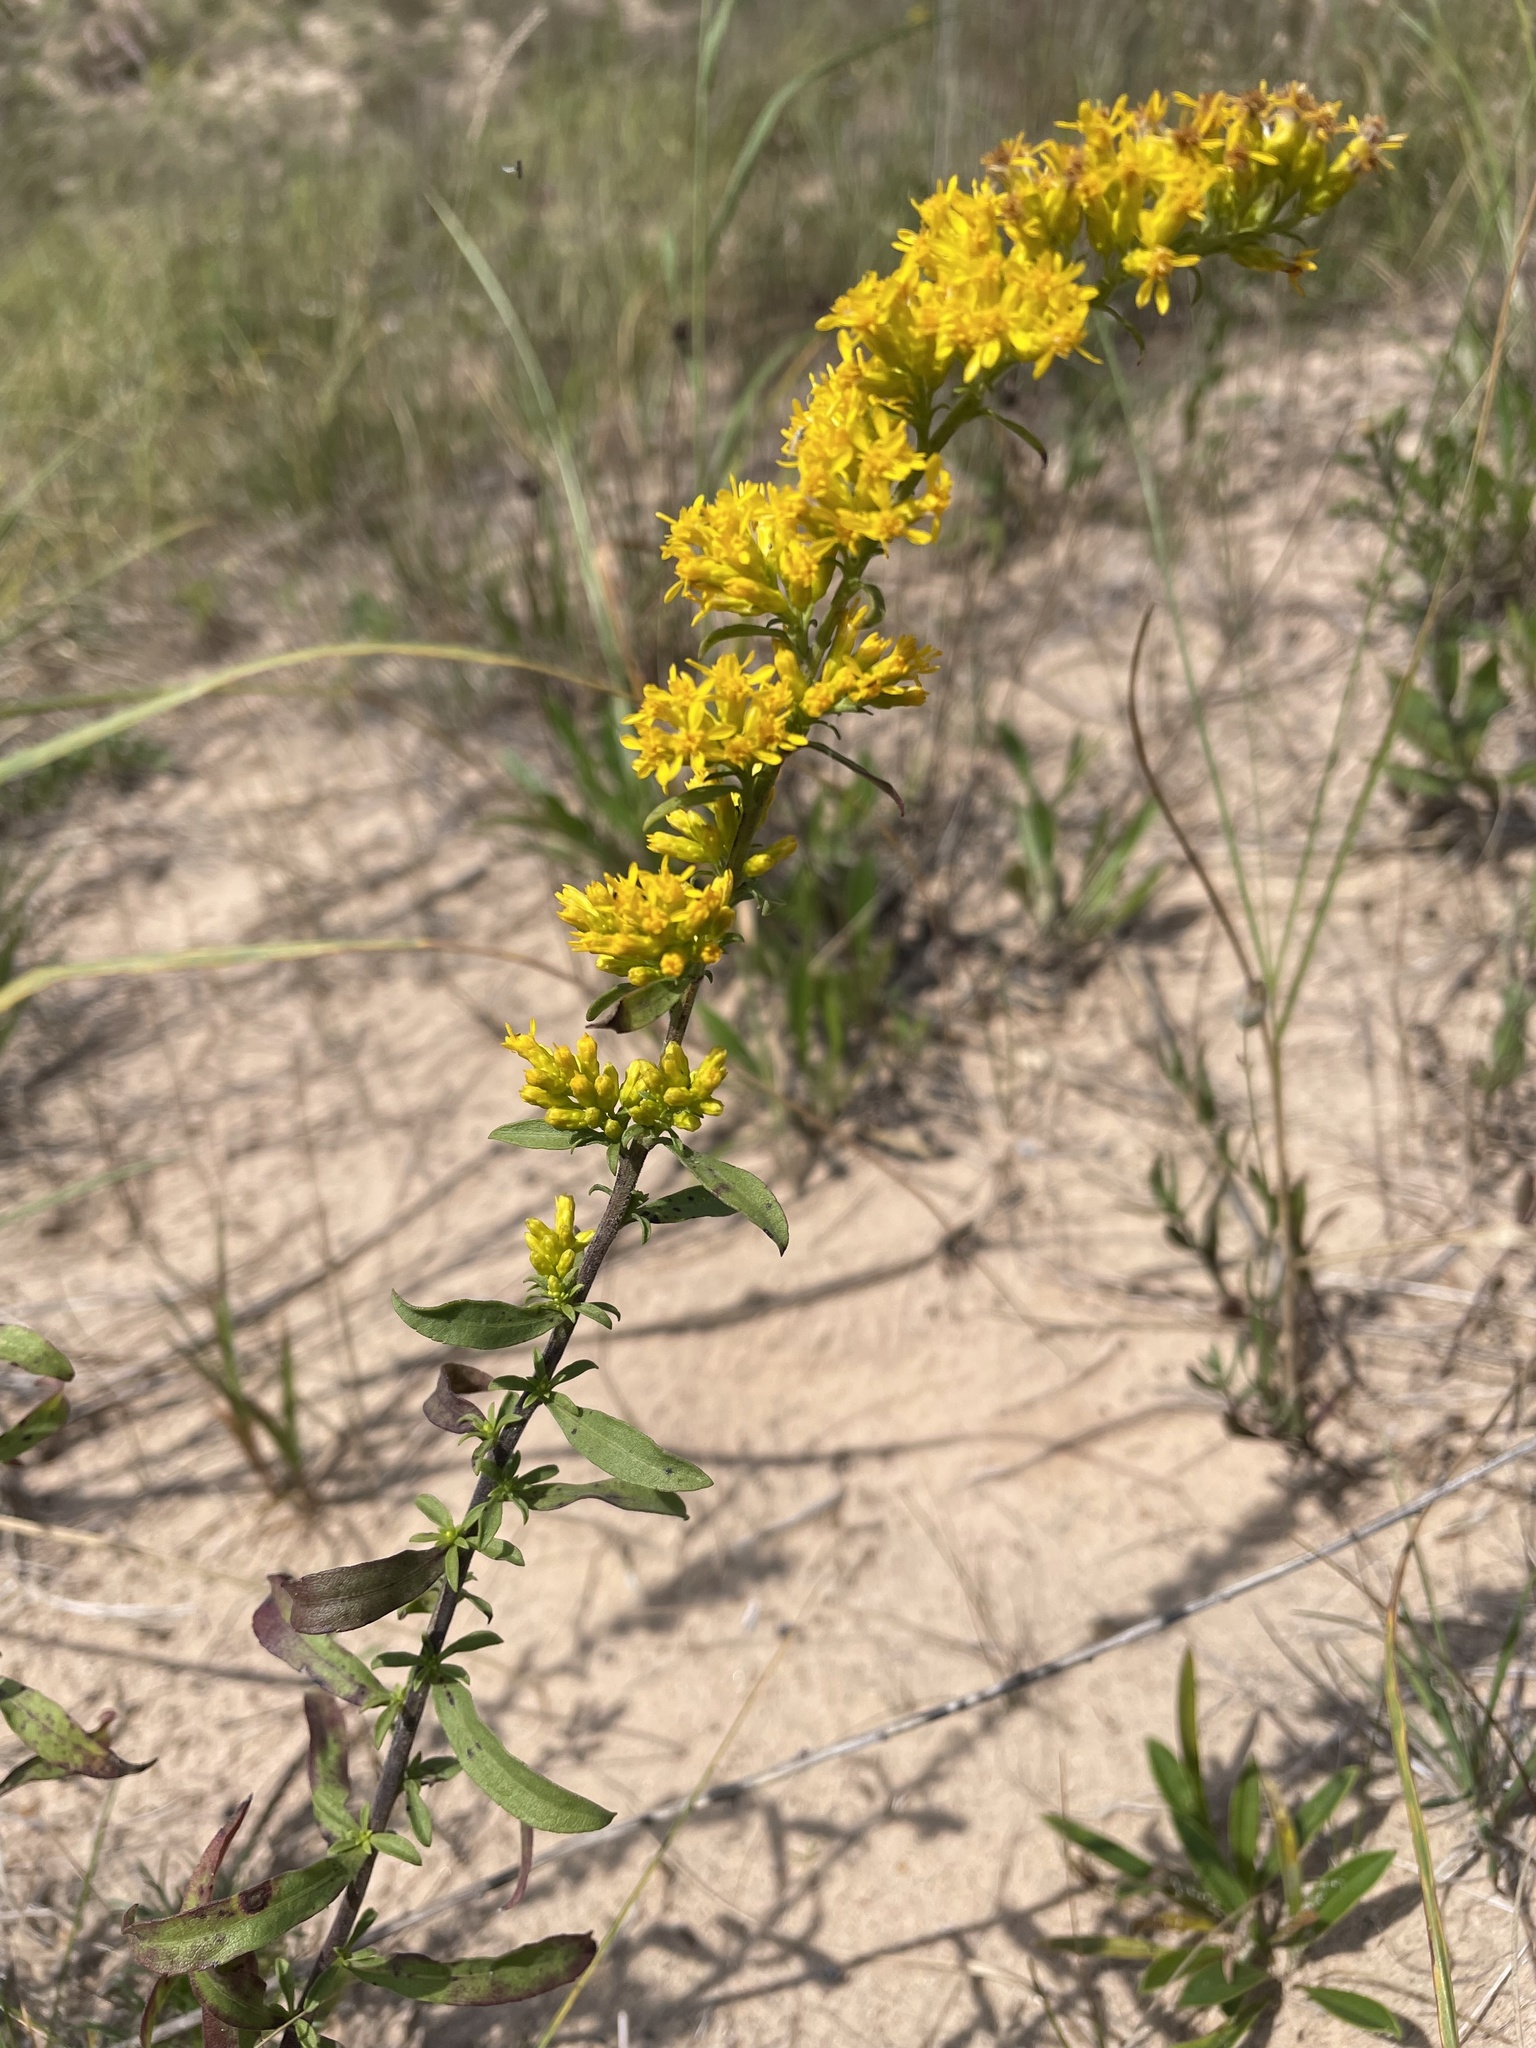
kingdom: Plantae
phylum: Tracheophyta
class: Magnoliopsida
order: Asterales
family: Asteraceae
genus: Solidago
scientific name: Solidago nemoralis
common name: Grey goldenrod
